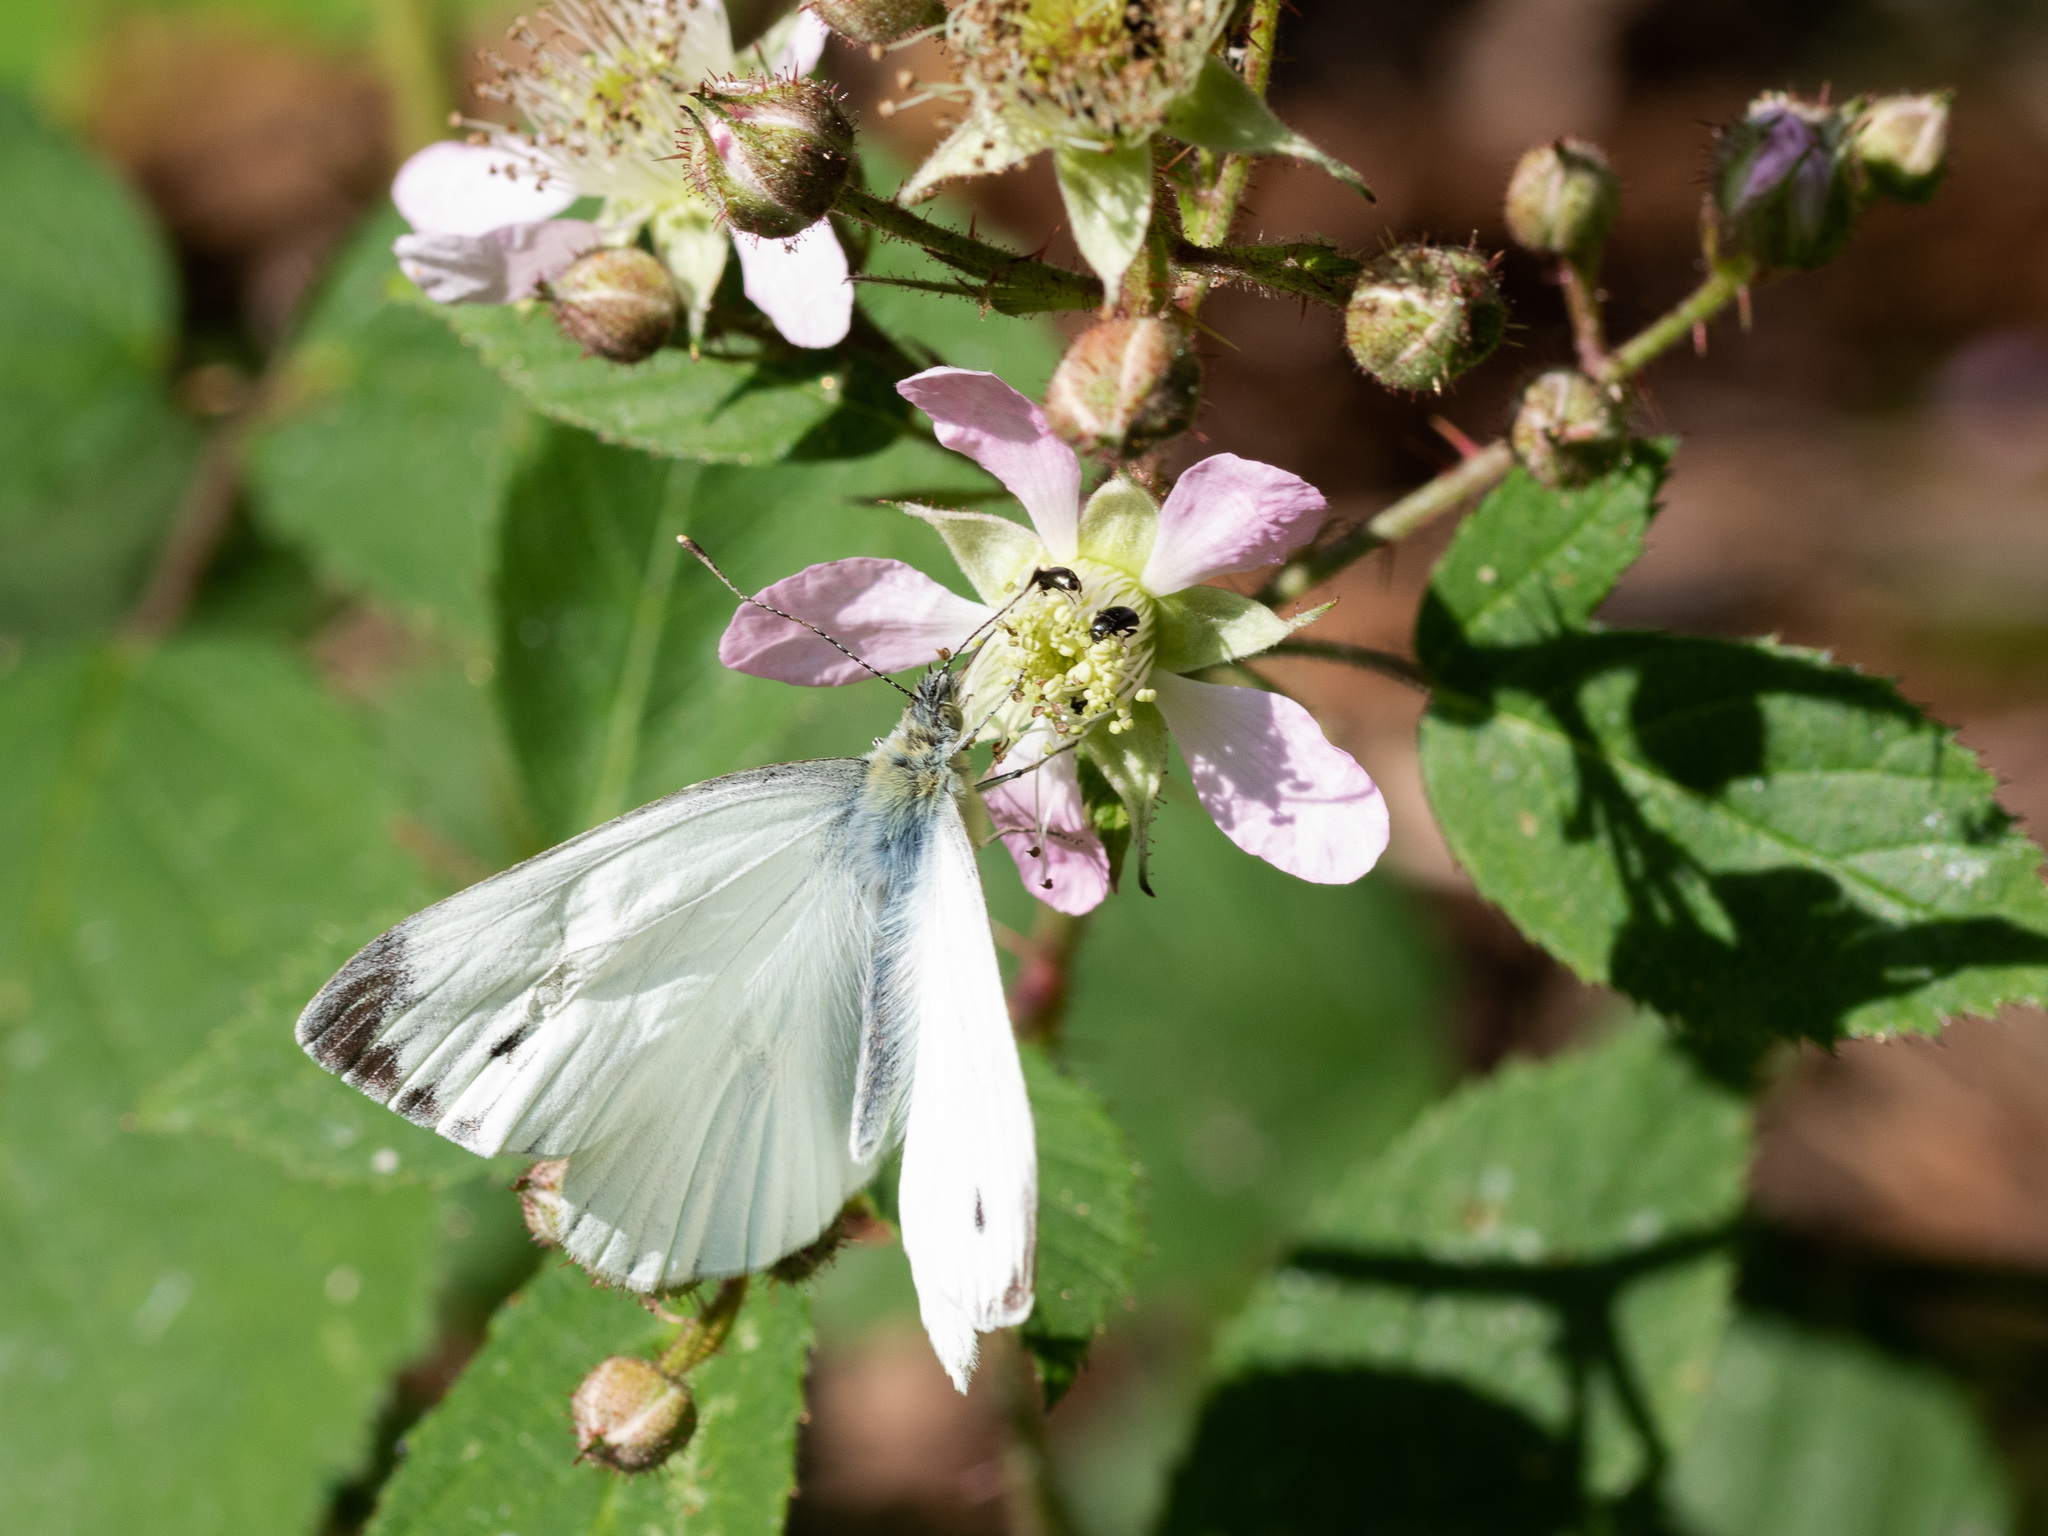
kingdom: Animalia
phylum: Arthropoda
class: Insecta
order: Lepidoptera
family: Pieridae
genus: Pieris
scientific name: Pieris napi
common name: Green-veined white
